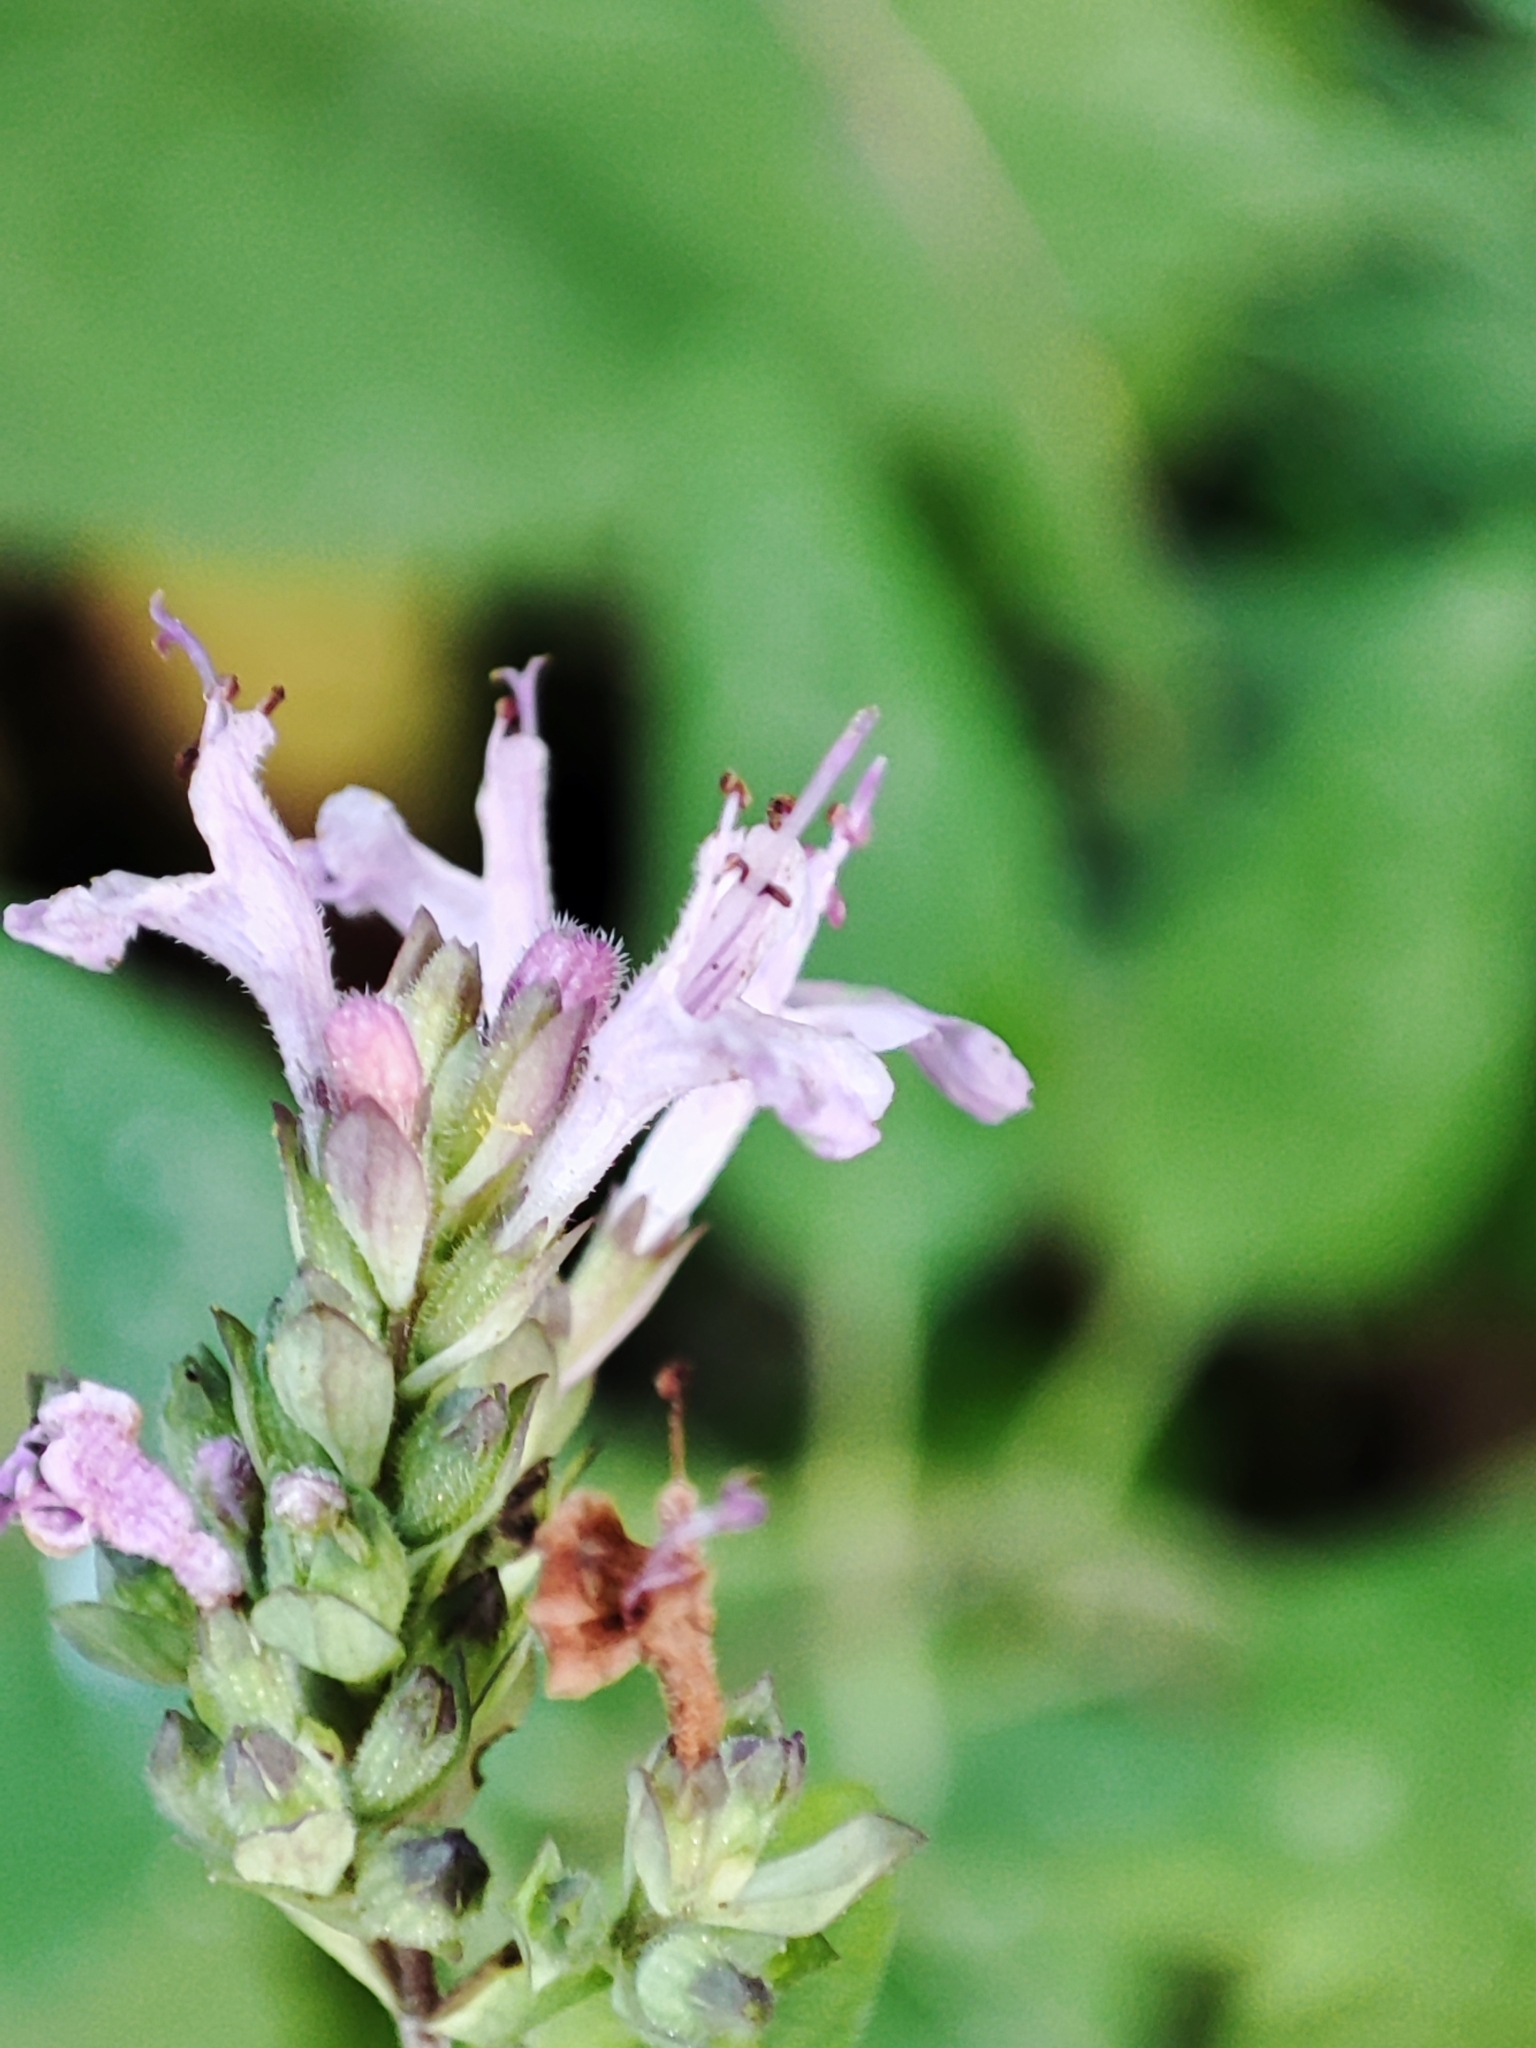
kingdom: Plantae
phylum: Tracheophyta
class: Magnoliopsida
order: Lamiales
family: Lamiaceae
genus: Origanum
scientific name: Origanum vulgare
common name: Wild marjoram
